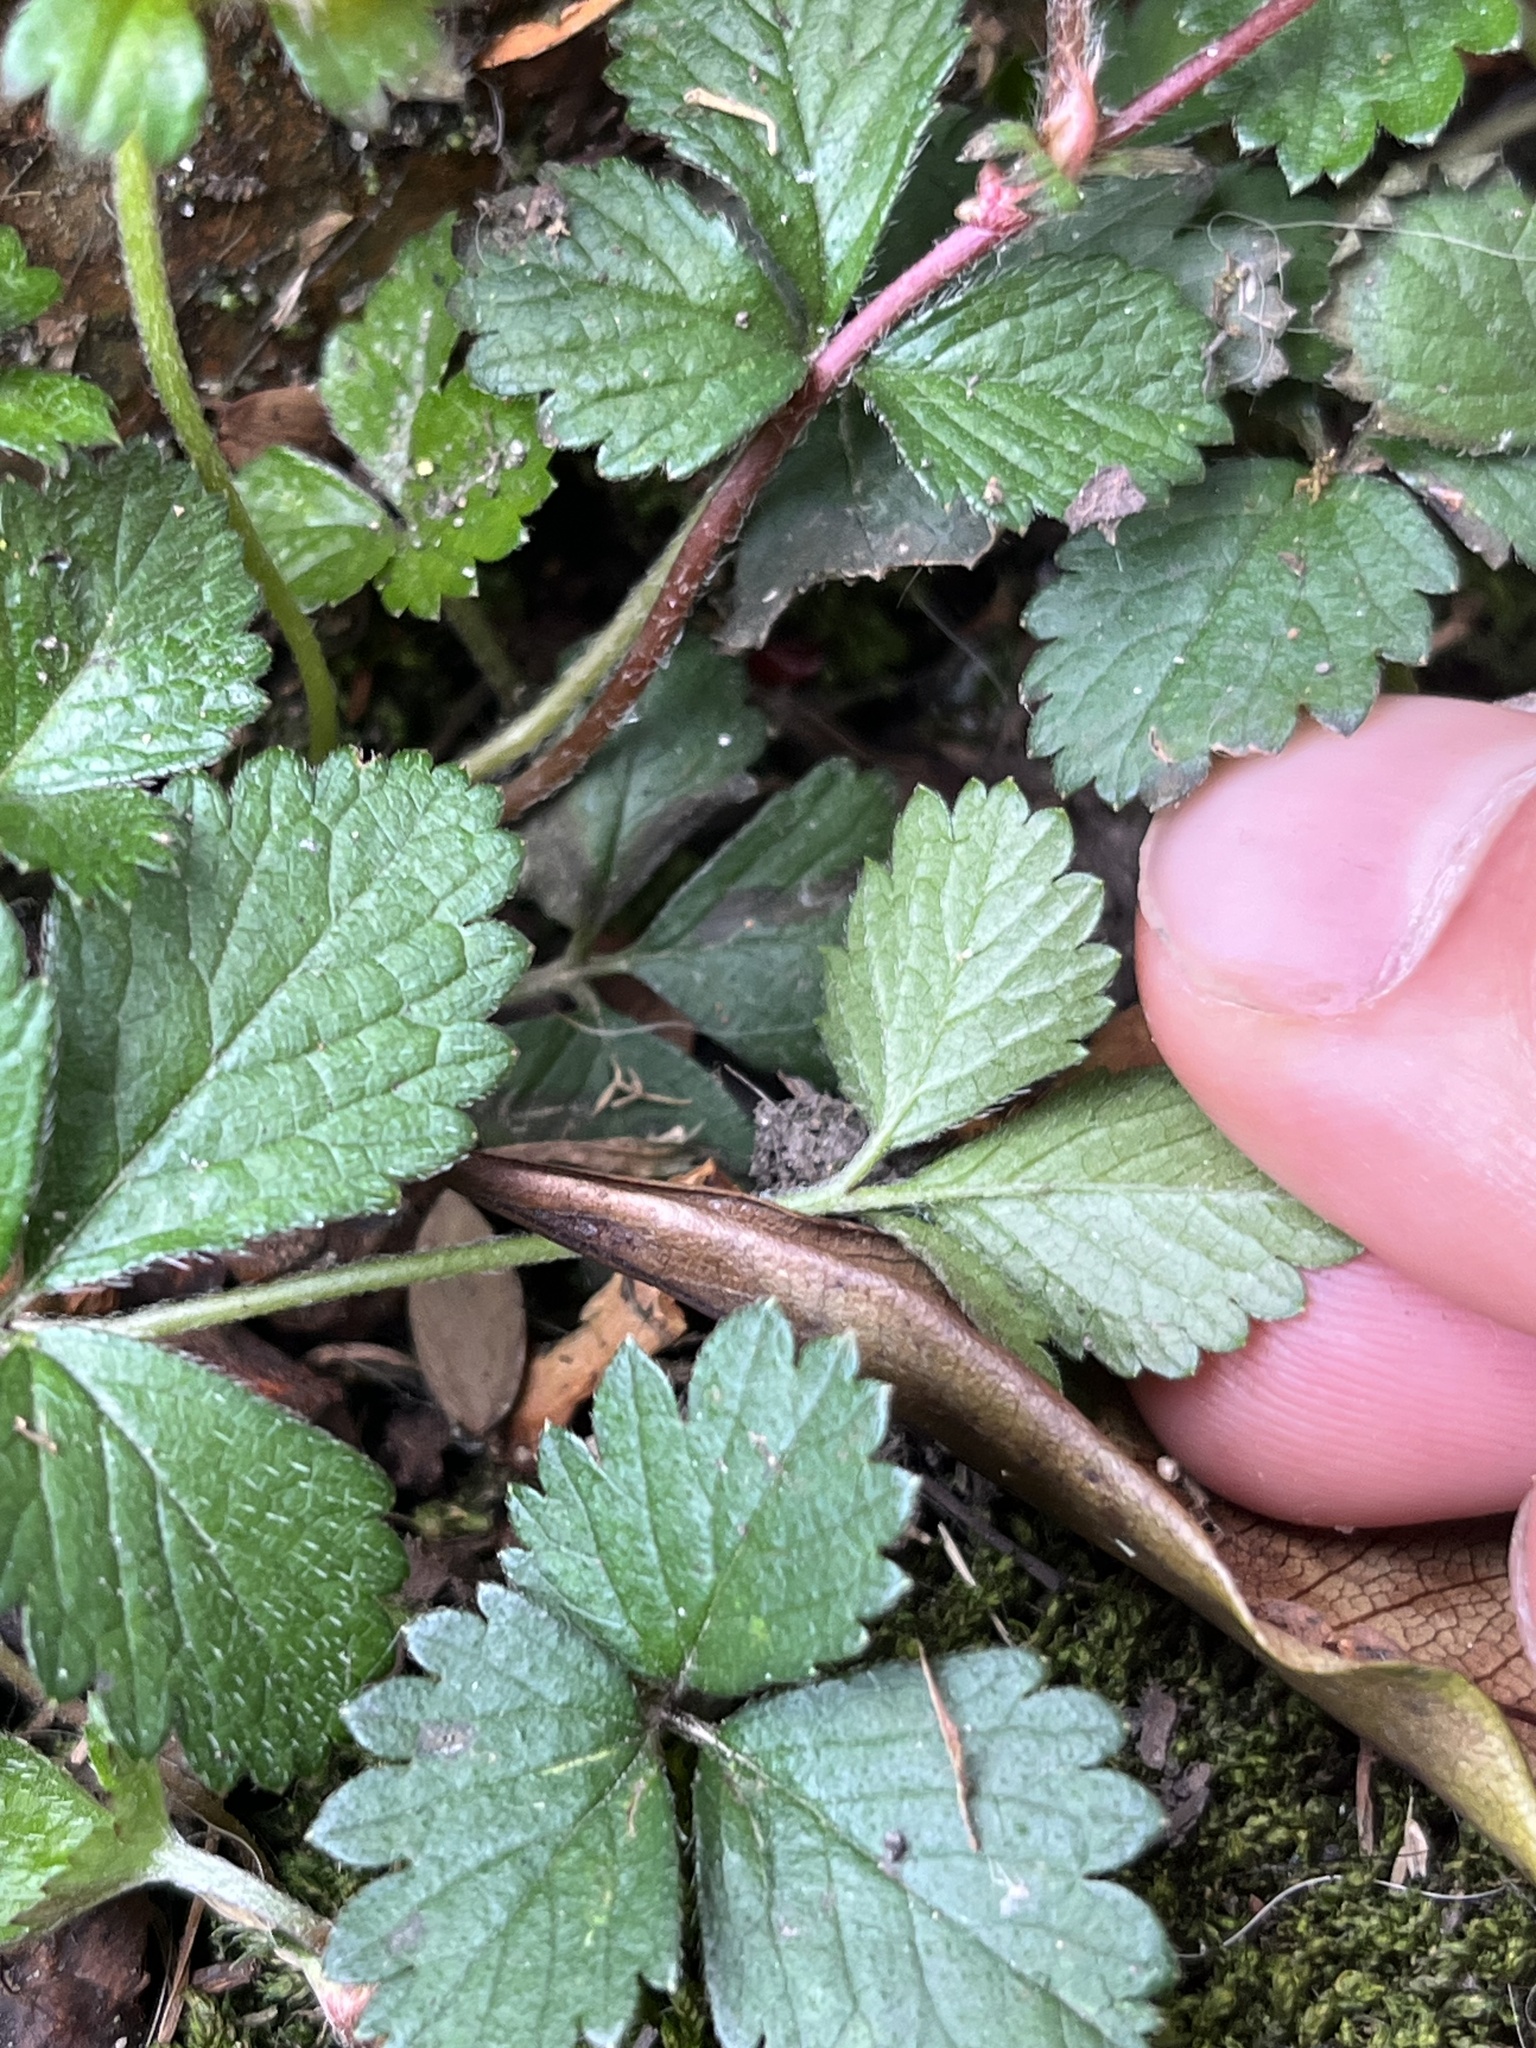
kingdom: Plantae
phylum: Tracheophyta
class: Magnoliopsida
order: Rosales
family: Rosaceae
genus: Potentilla
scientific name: Potentilla indica
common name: Yellow-flowered strawberry
